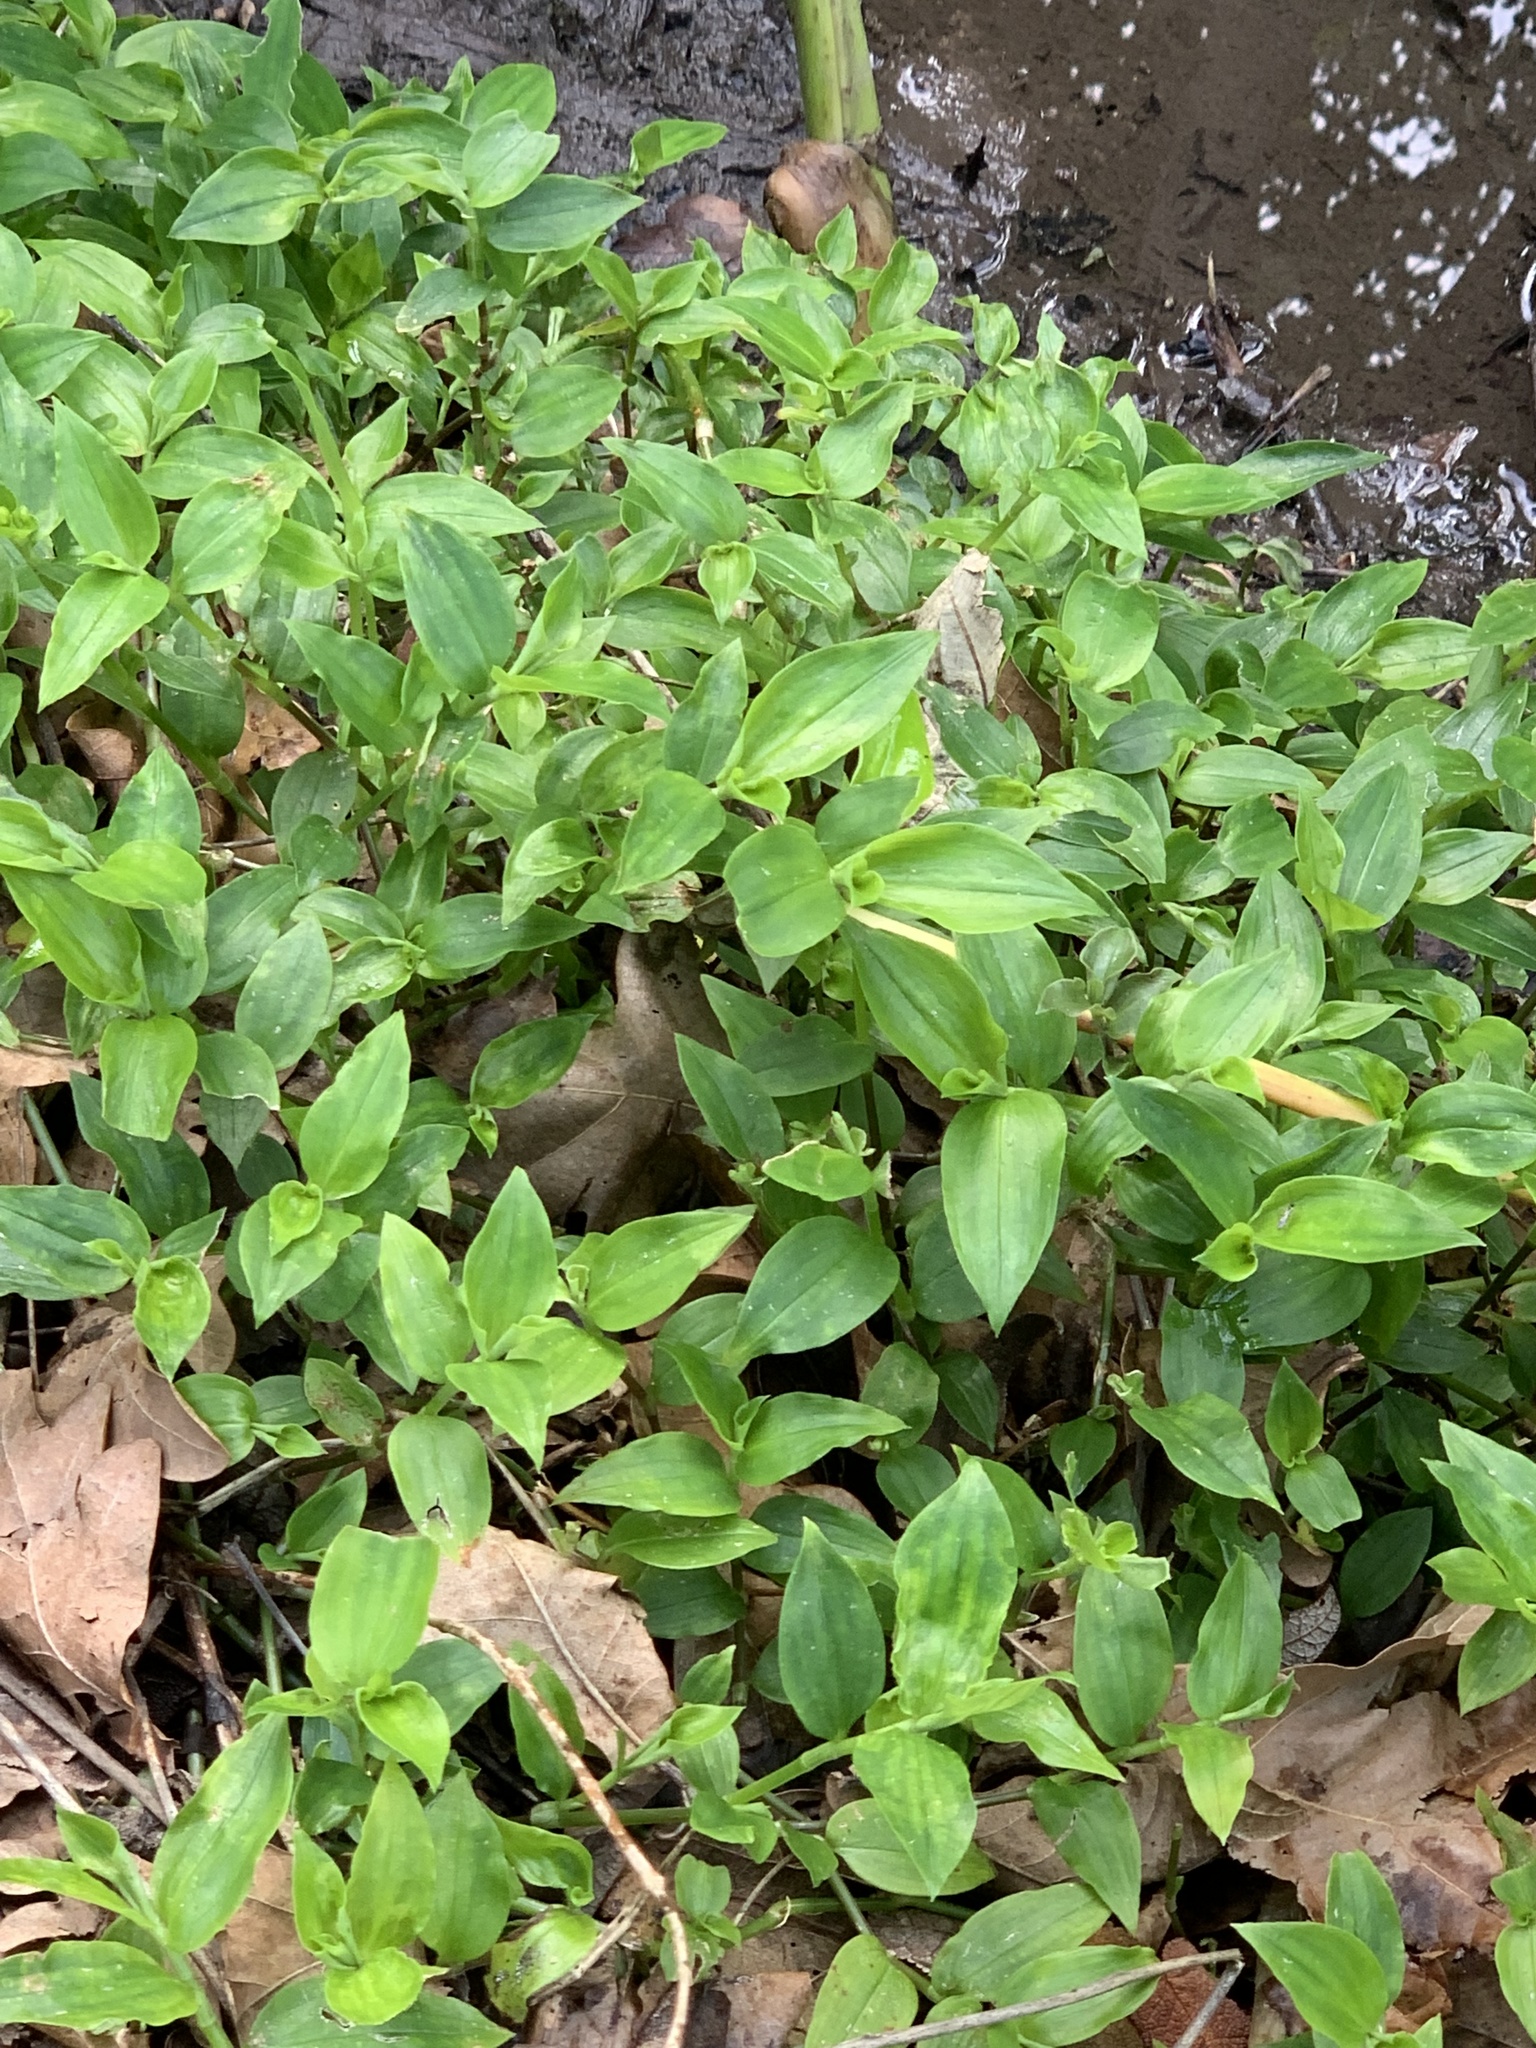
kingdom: Plantae
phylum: Tracheophyta
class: Liliopsida
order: Commelinales
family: Commelinaceae
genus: Tradescantia
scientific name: Tradescantia fluminensis
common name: Wandering-jew
